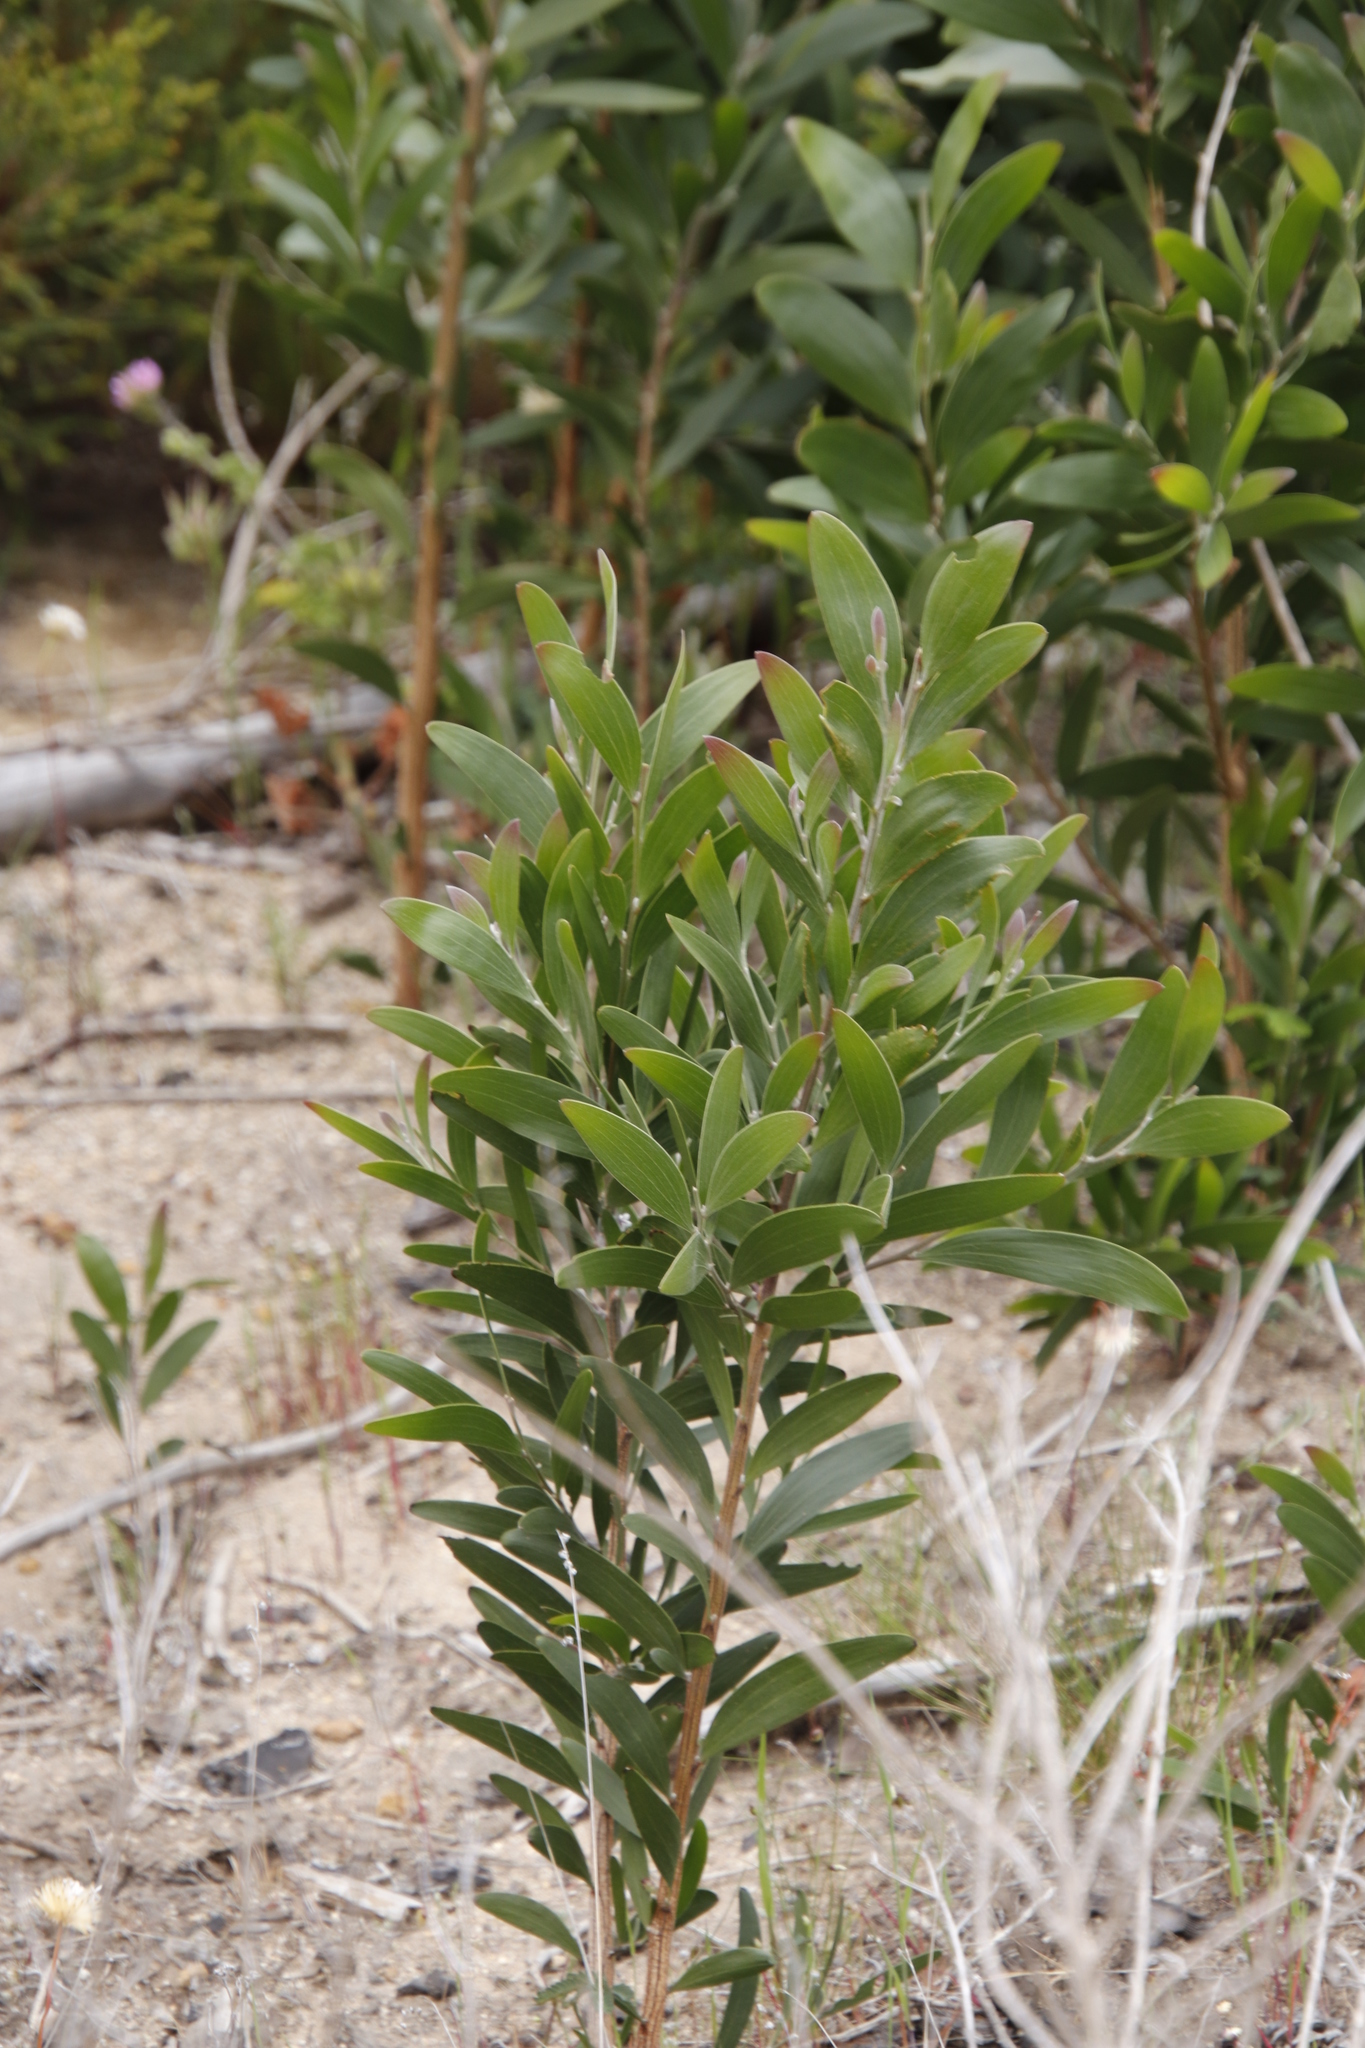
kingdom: Plantae
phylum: Tracheophyta
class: Magnoliopsida
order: Fabales
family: Fabaceae
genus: Acacia
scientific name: Acacia melanoxylon
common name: Blackwood
